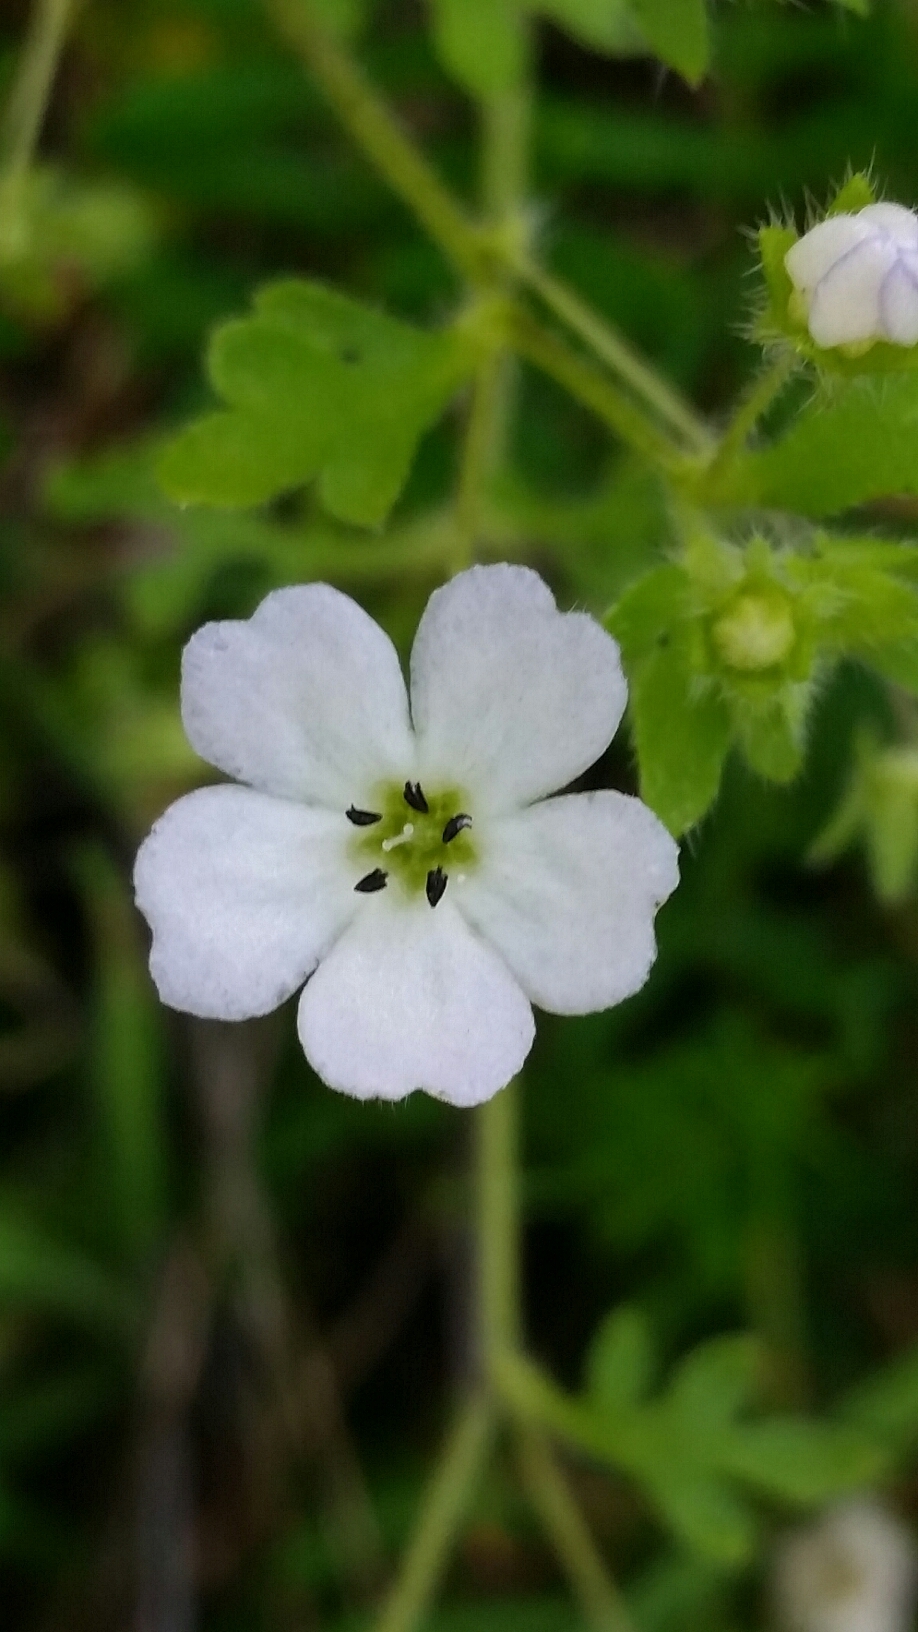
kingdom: Plantae
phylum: Tracheophyta
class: Magnoliopsida
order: Boraginales
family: Hydrophyllaceae
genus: Nemophila
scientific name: Nemophila heterophylla
